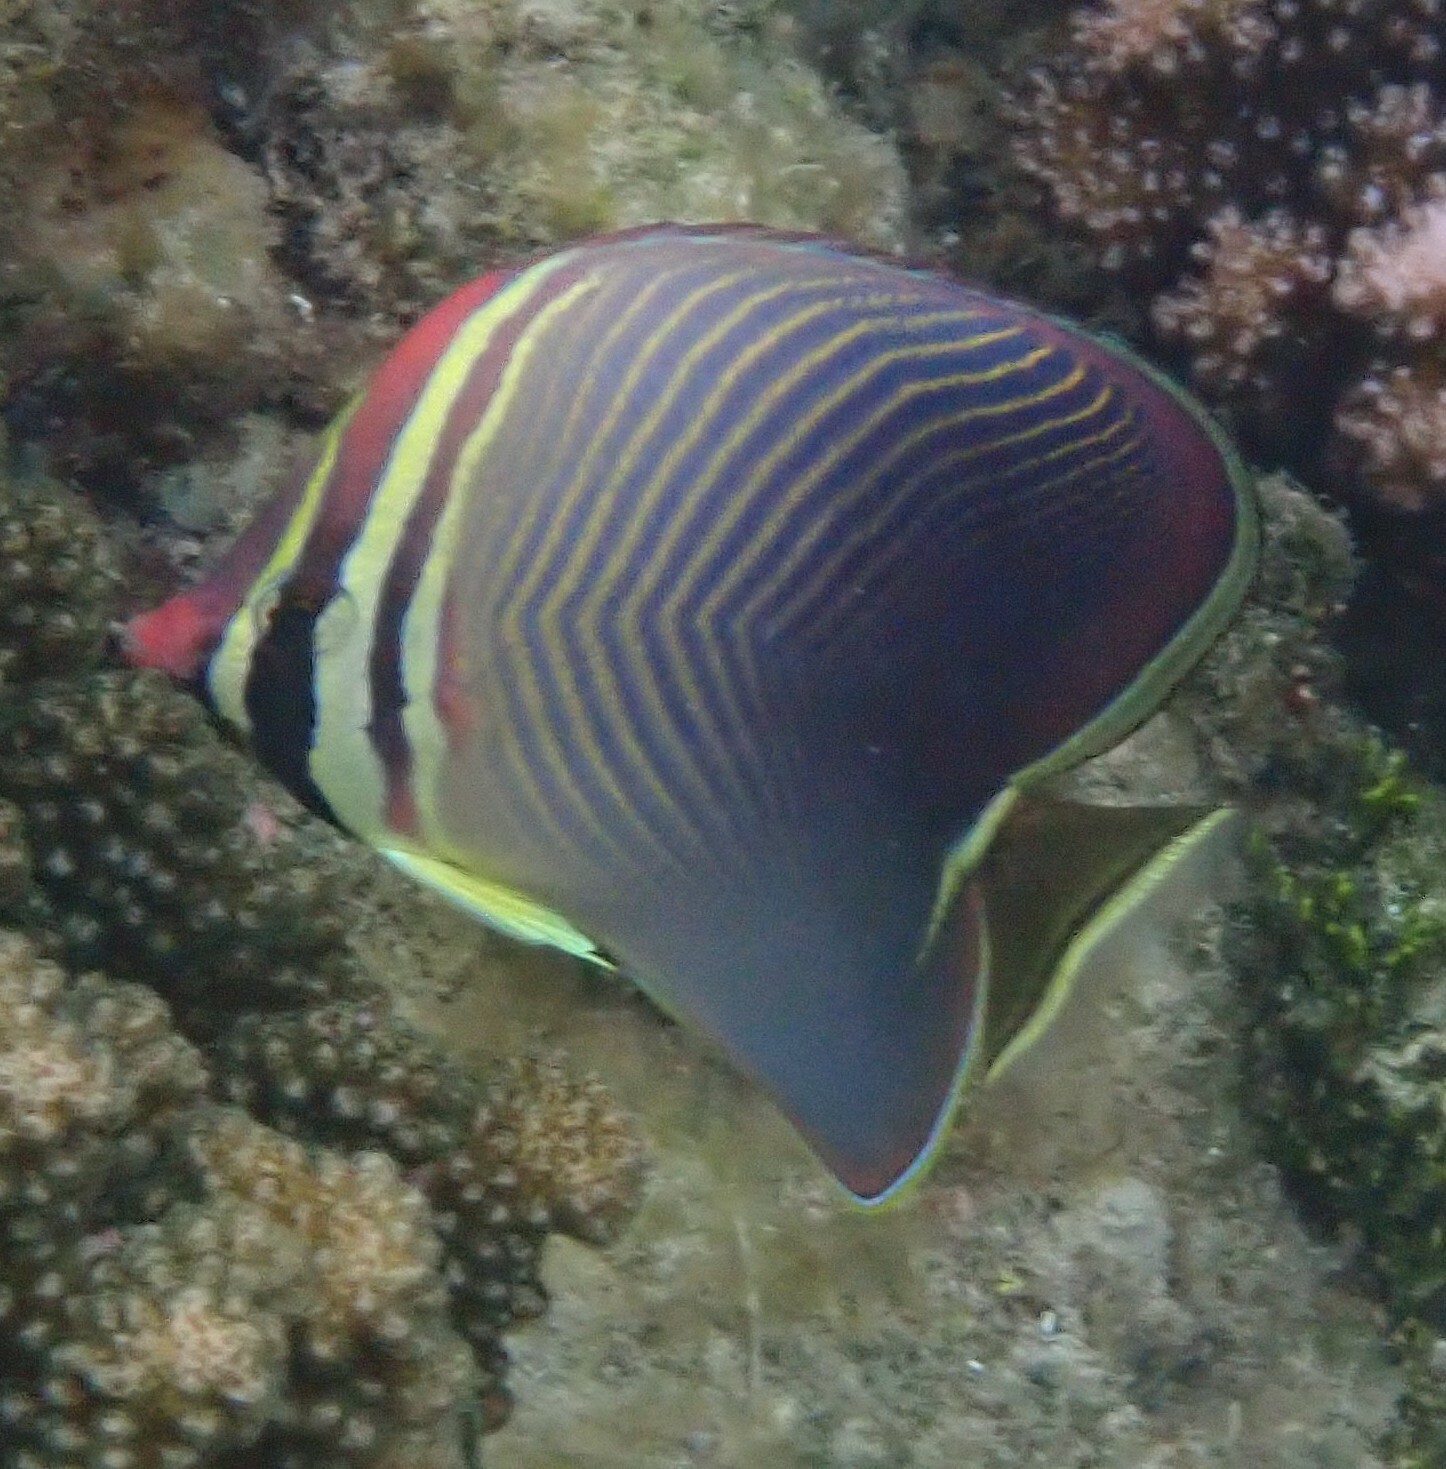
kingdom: Animalia
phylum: Chordata
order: Perciformes
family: Chaetodontidae
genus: Chaetodon
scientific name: Chaetodon baronessa
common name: Triangular butterflyfish
